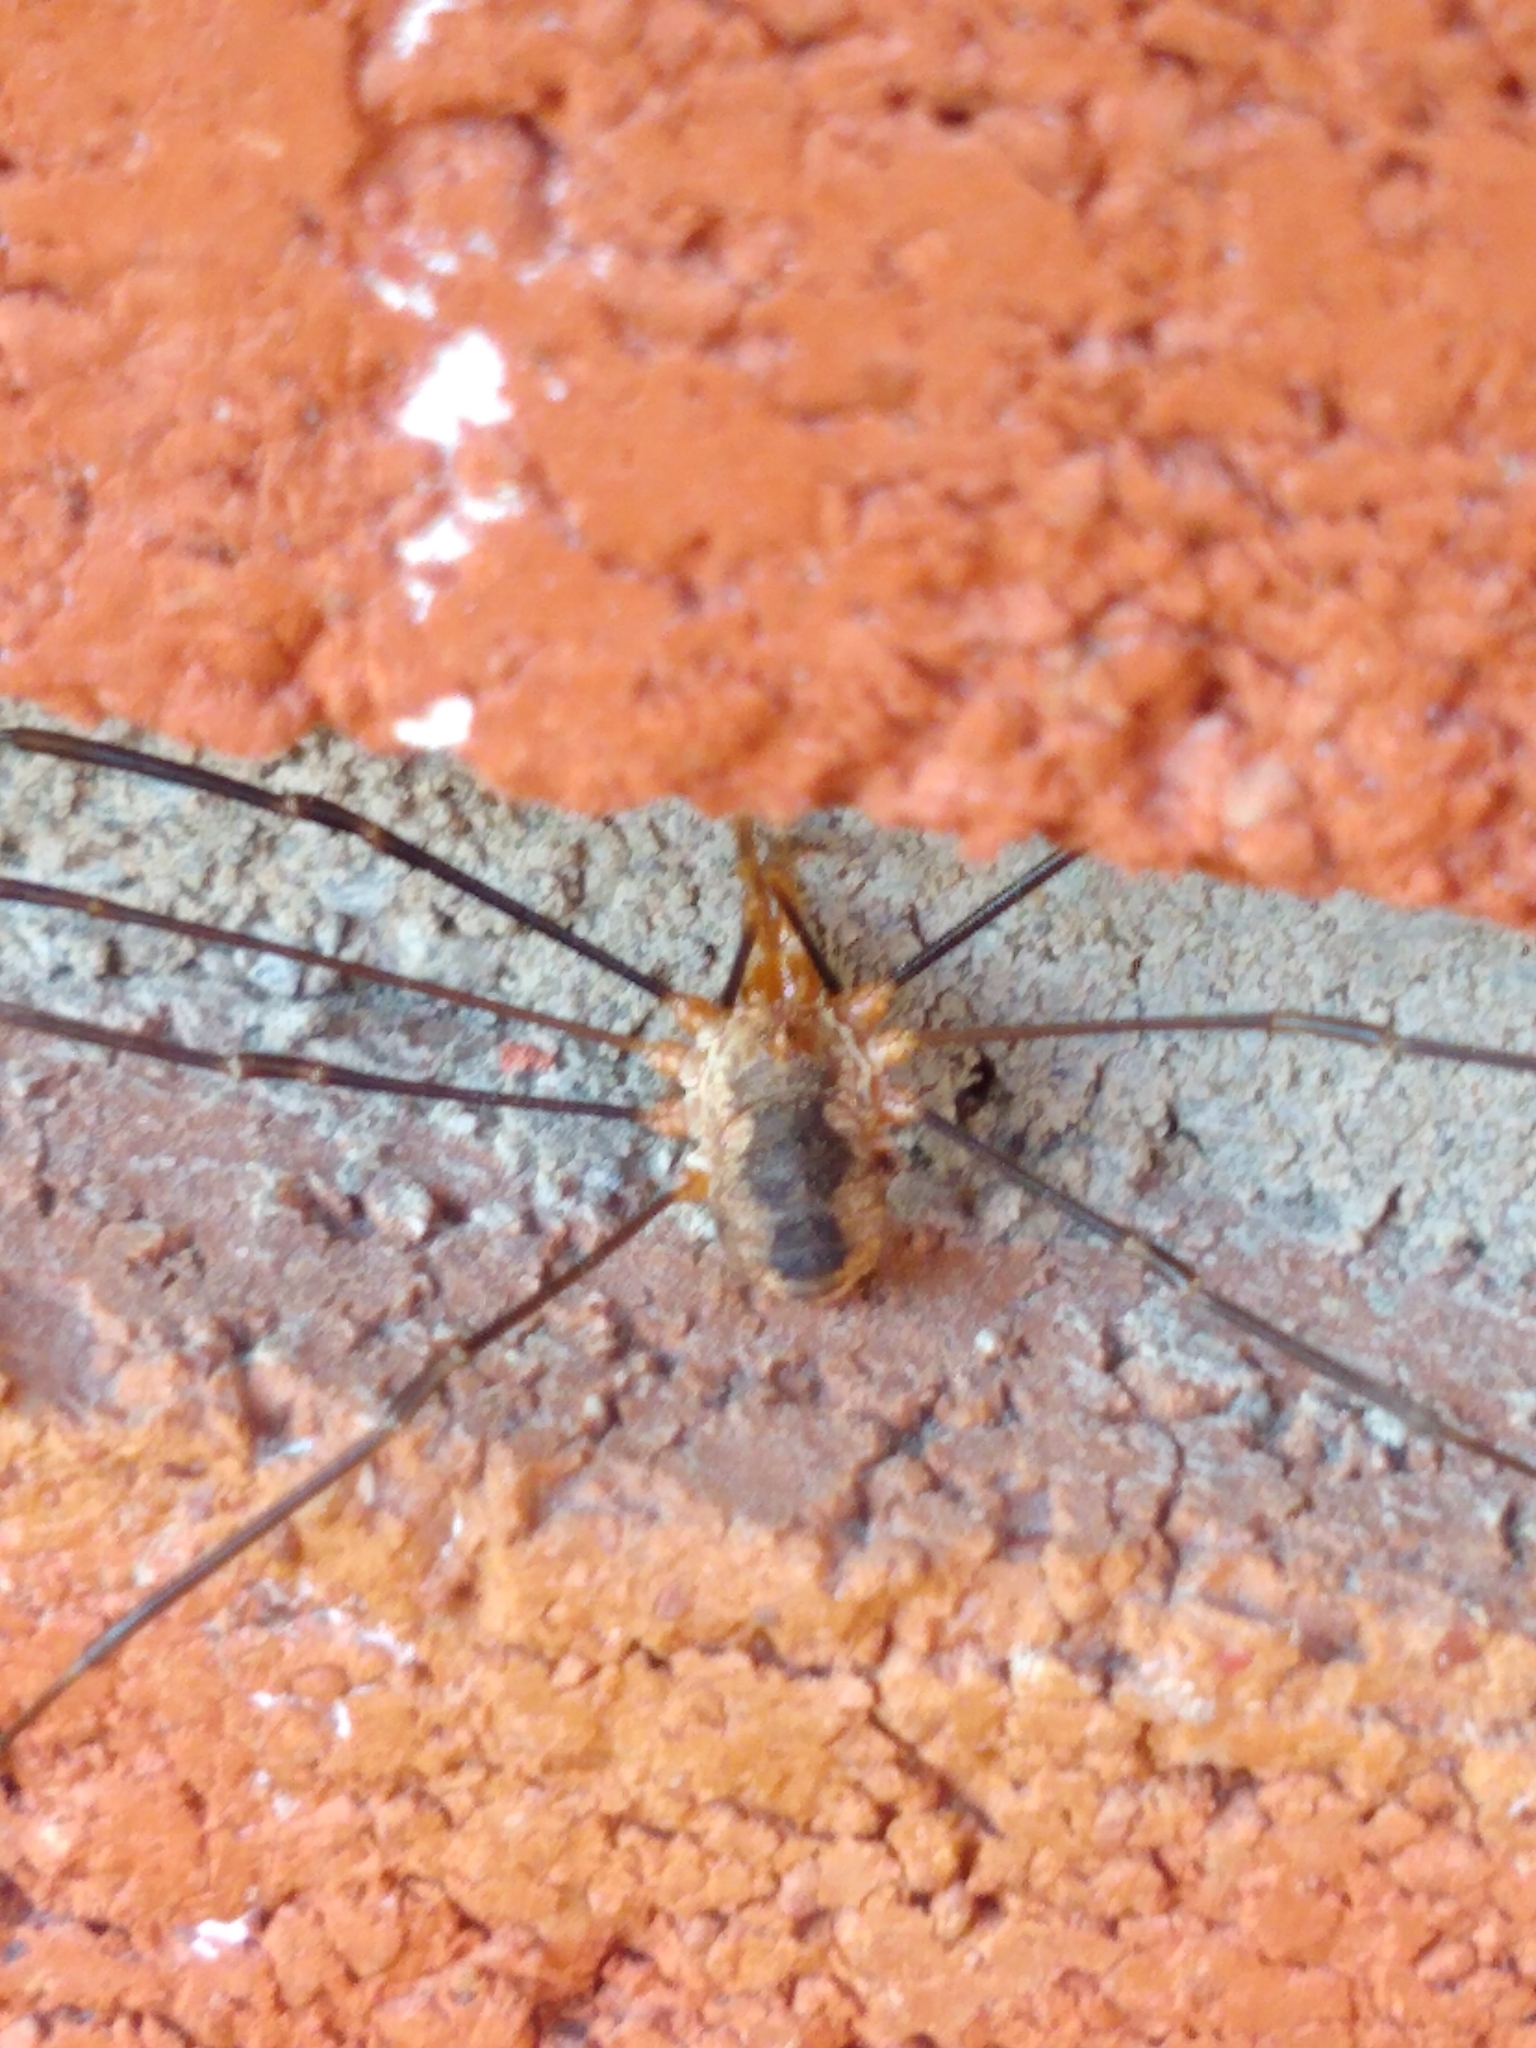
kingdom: Animalia
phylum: Arthropoda
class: Arachnida
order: Opiliones
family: Phalangiidae
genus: Phalangium
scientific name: Phalangium opilio
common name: Daddy longleg
